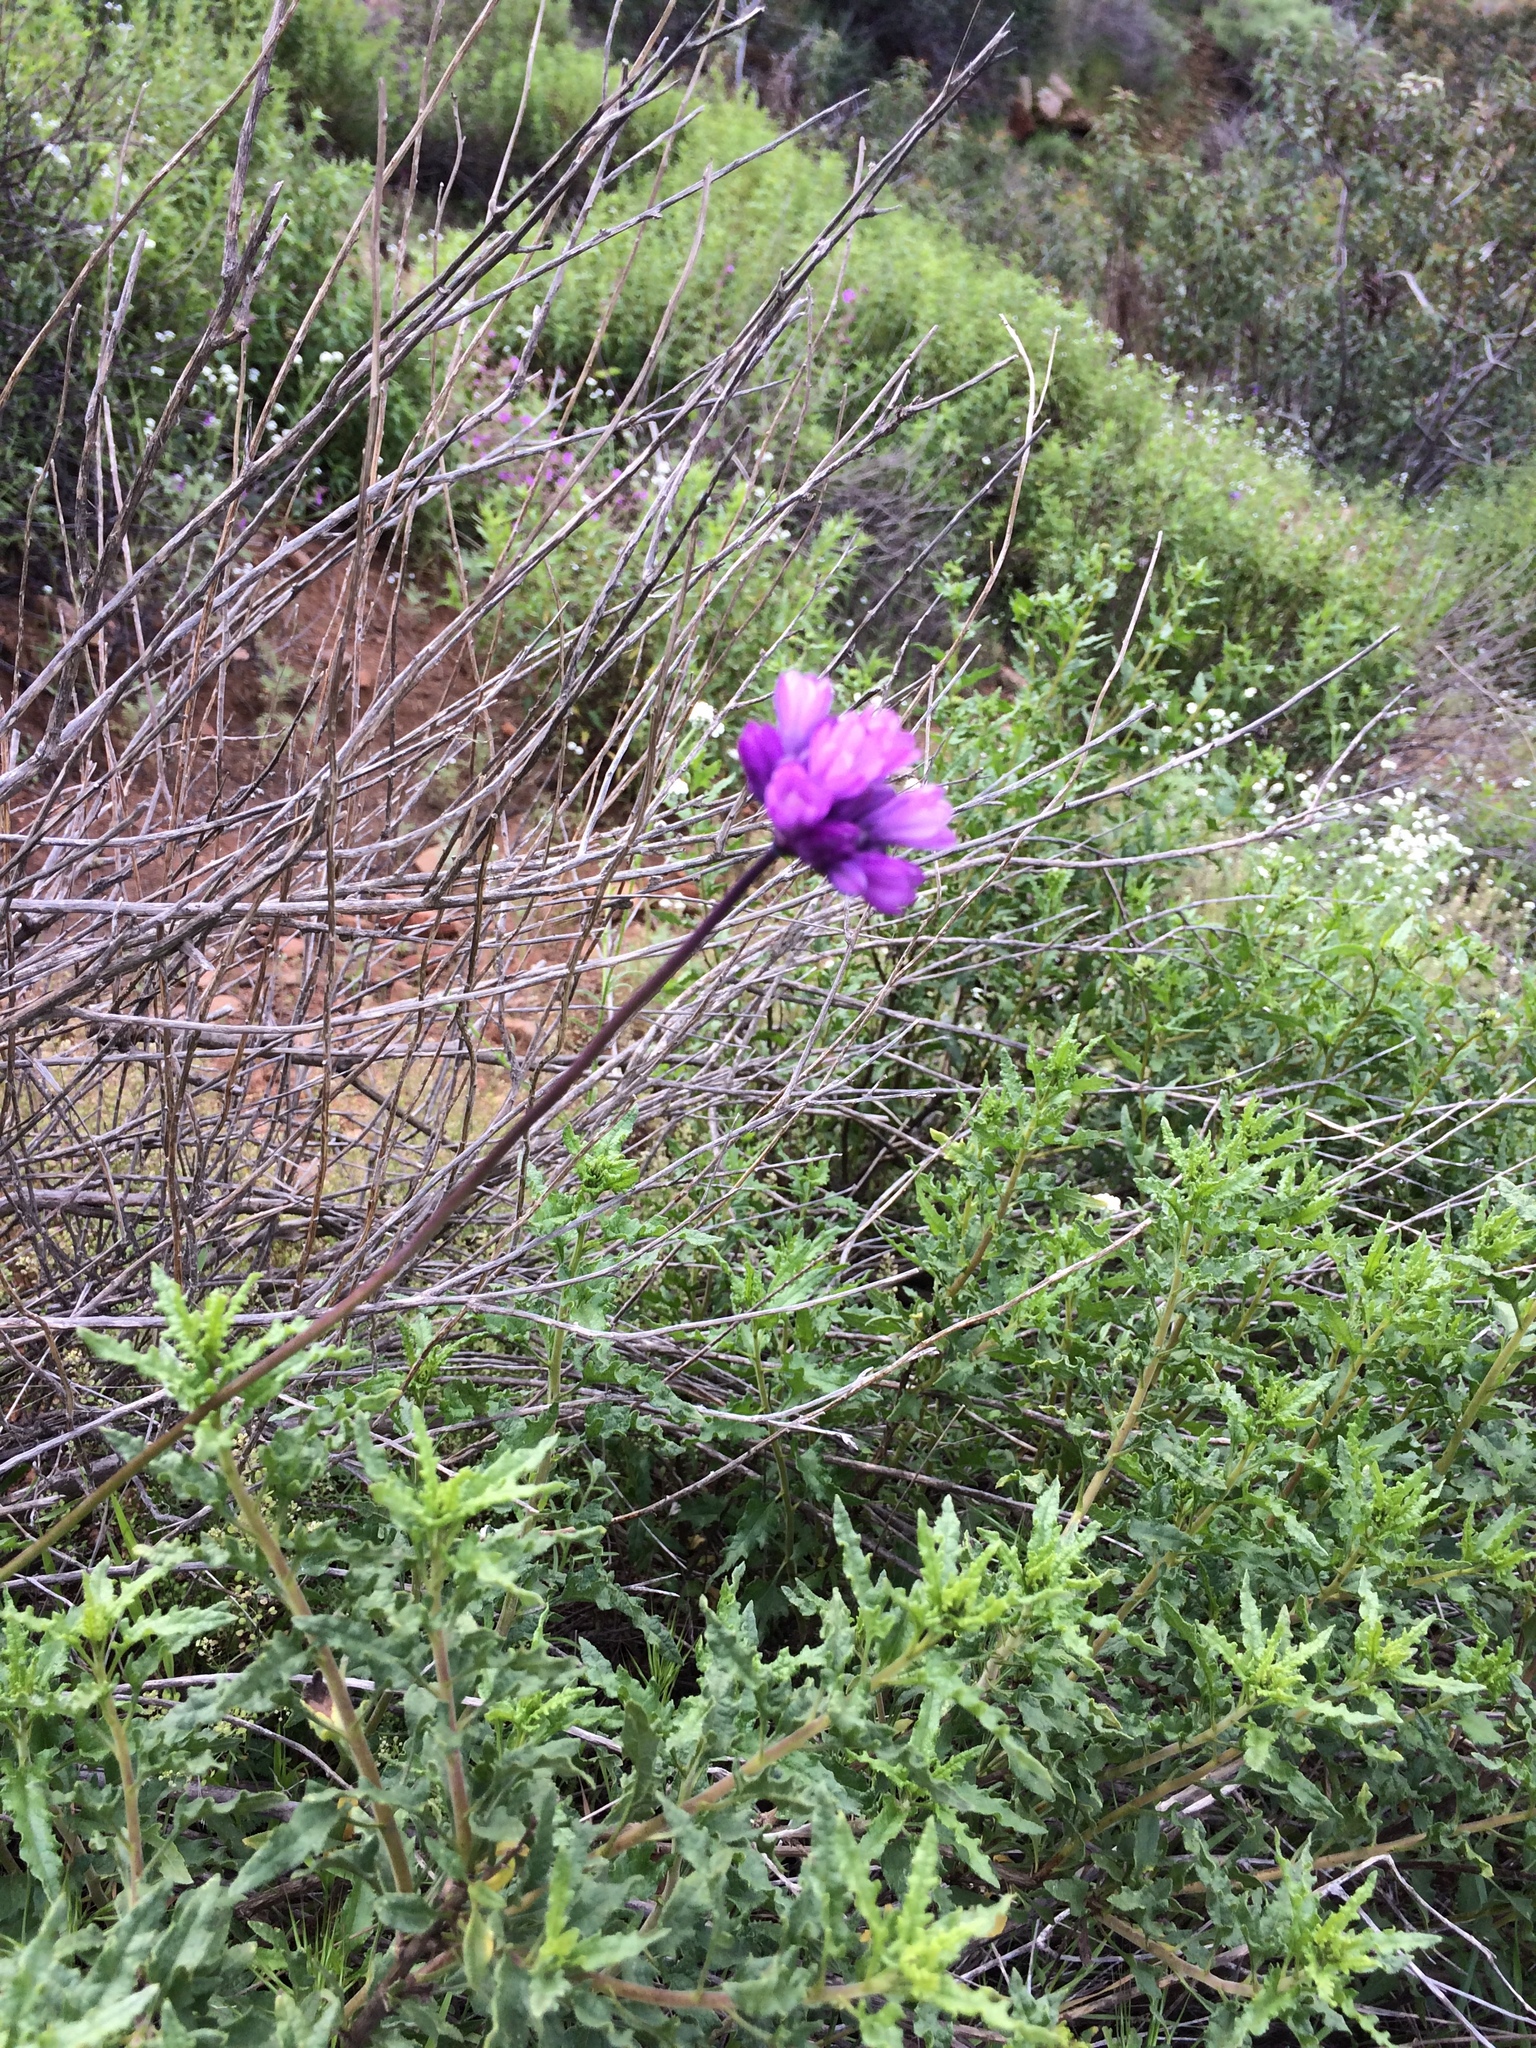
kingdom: Plantae
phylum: Tracheophyta
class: Liliopsida
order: Asparagales
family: Asparagaceae
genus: Dipterostemon
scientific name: Dipterostemon capitatus
